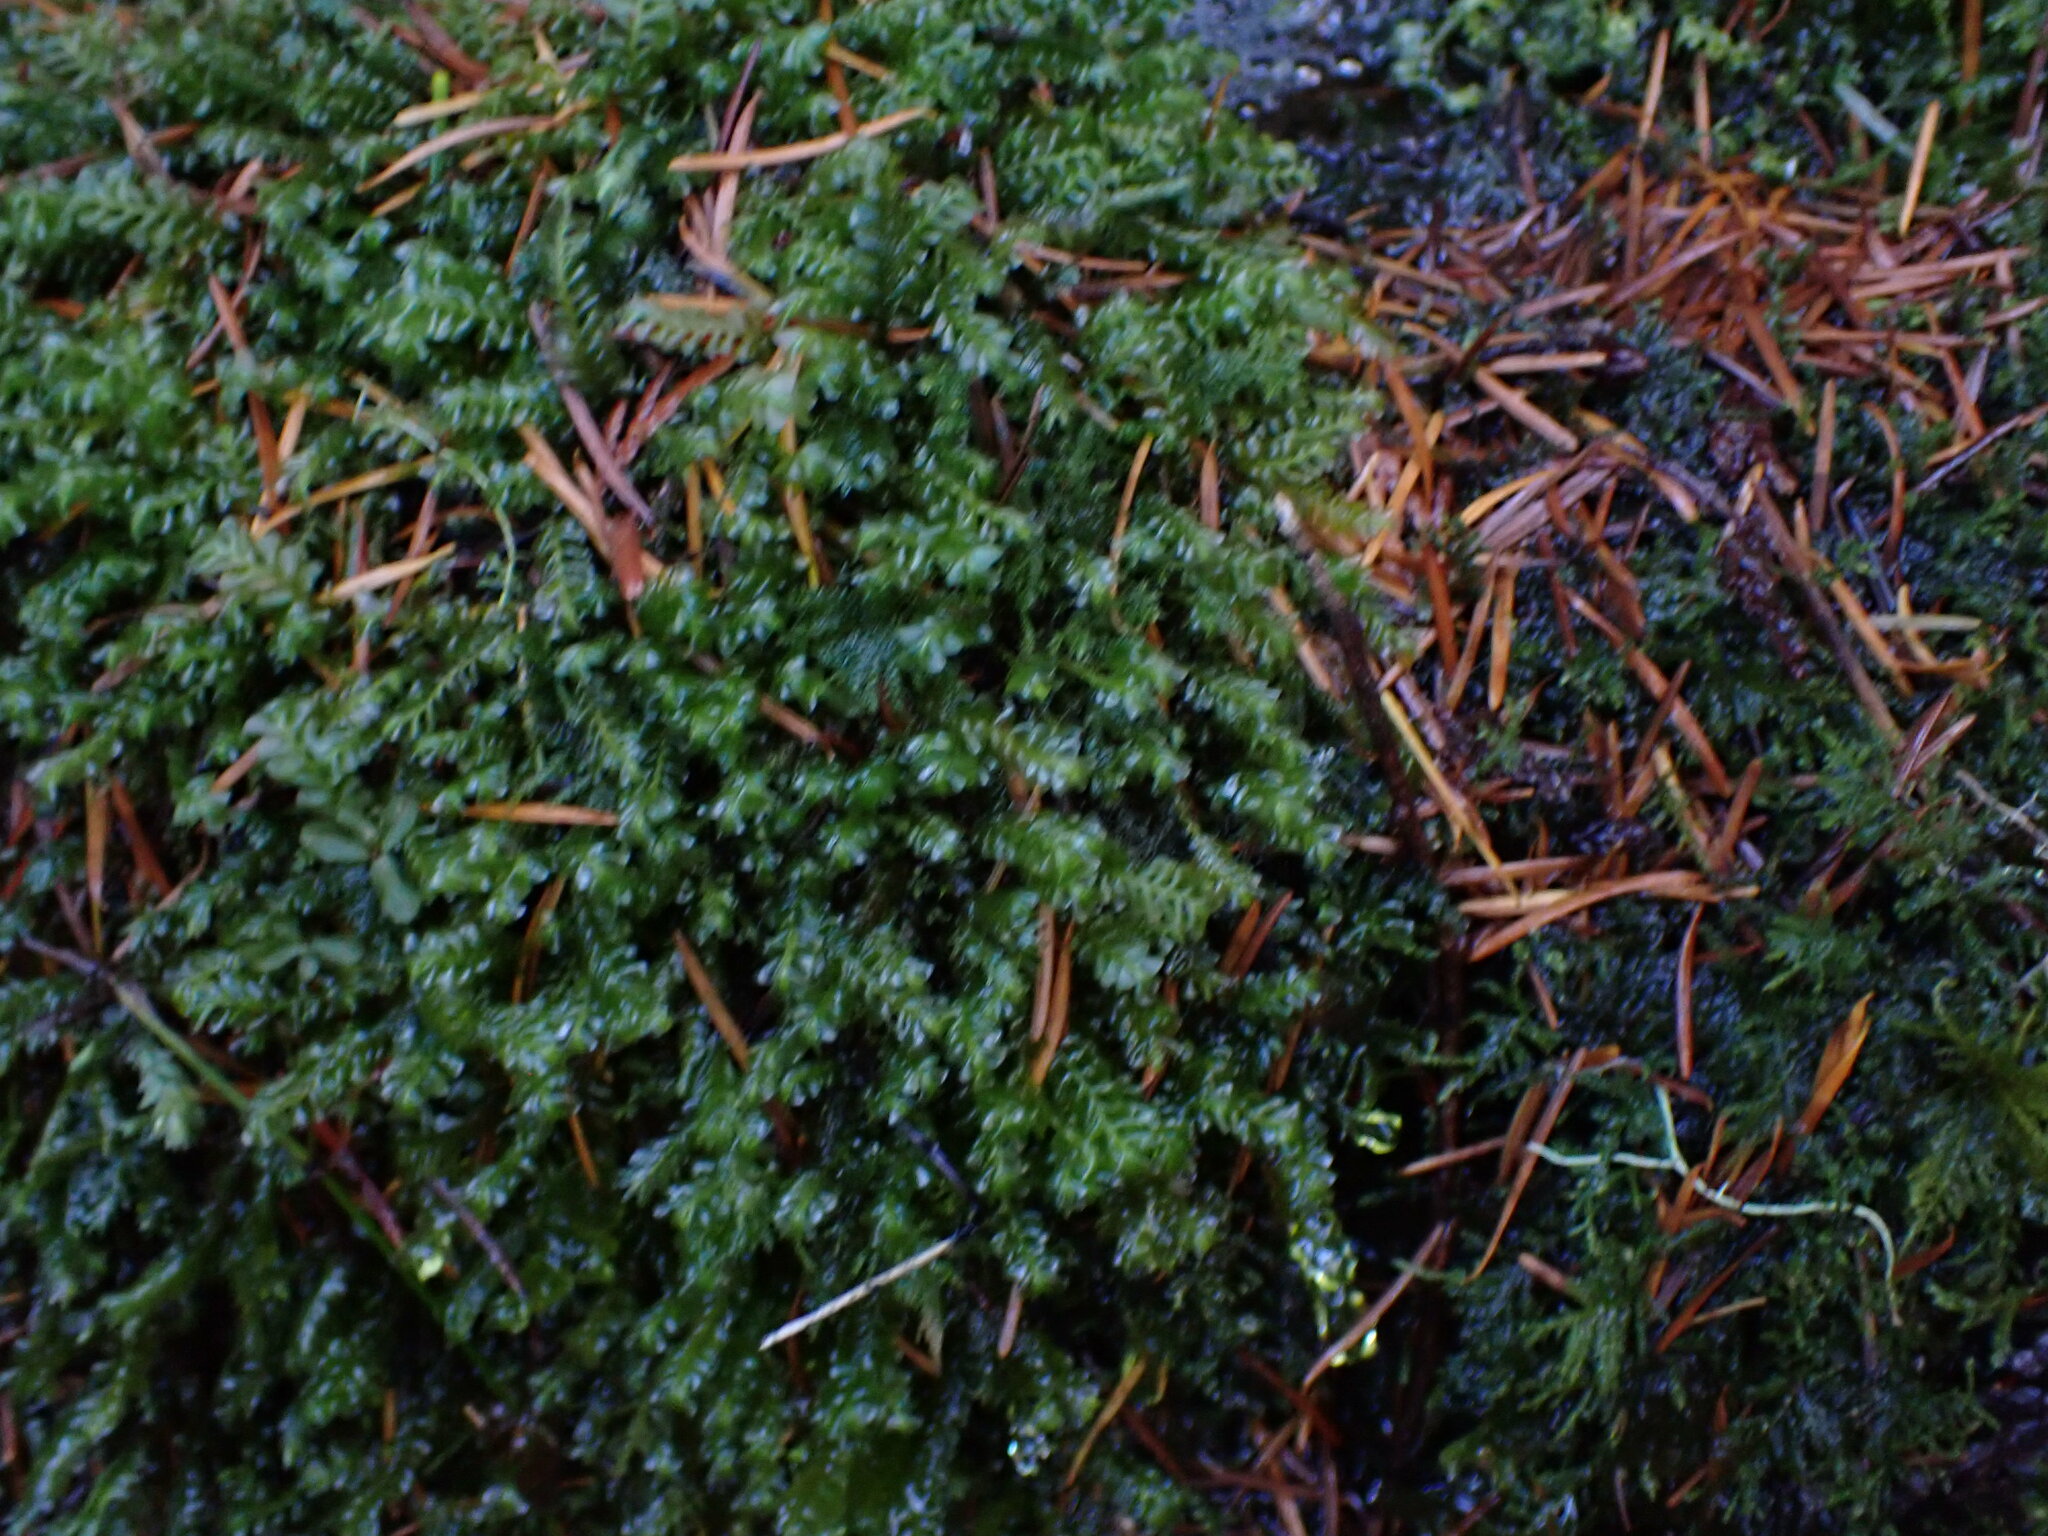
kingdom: Plantae
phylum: Marchantiophyta
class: Jungermanniopsida
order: Jungermanniales
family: Plagiochilaceae
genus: Plagiochila
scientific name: Plagiochila porelloides
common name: Lesser featherwort
